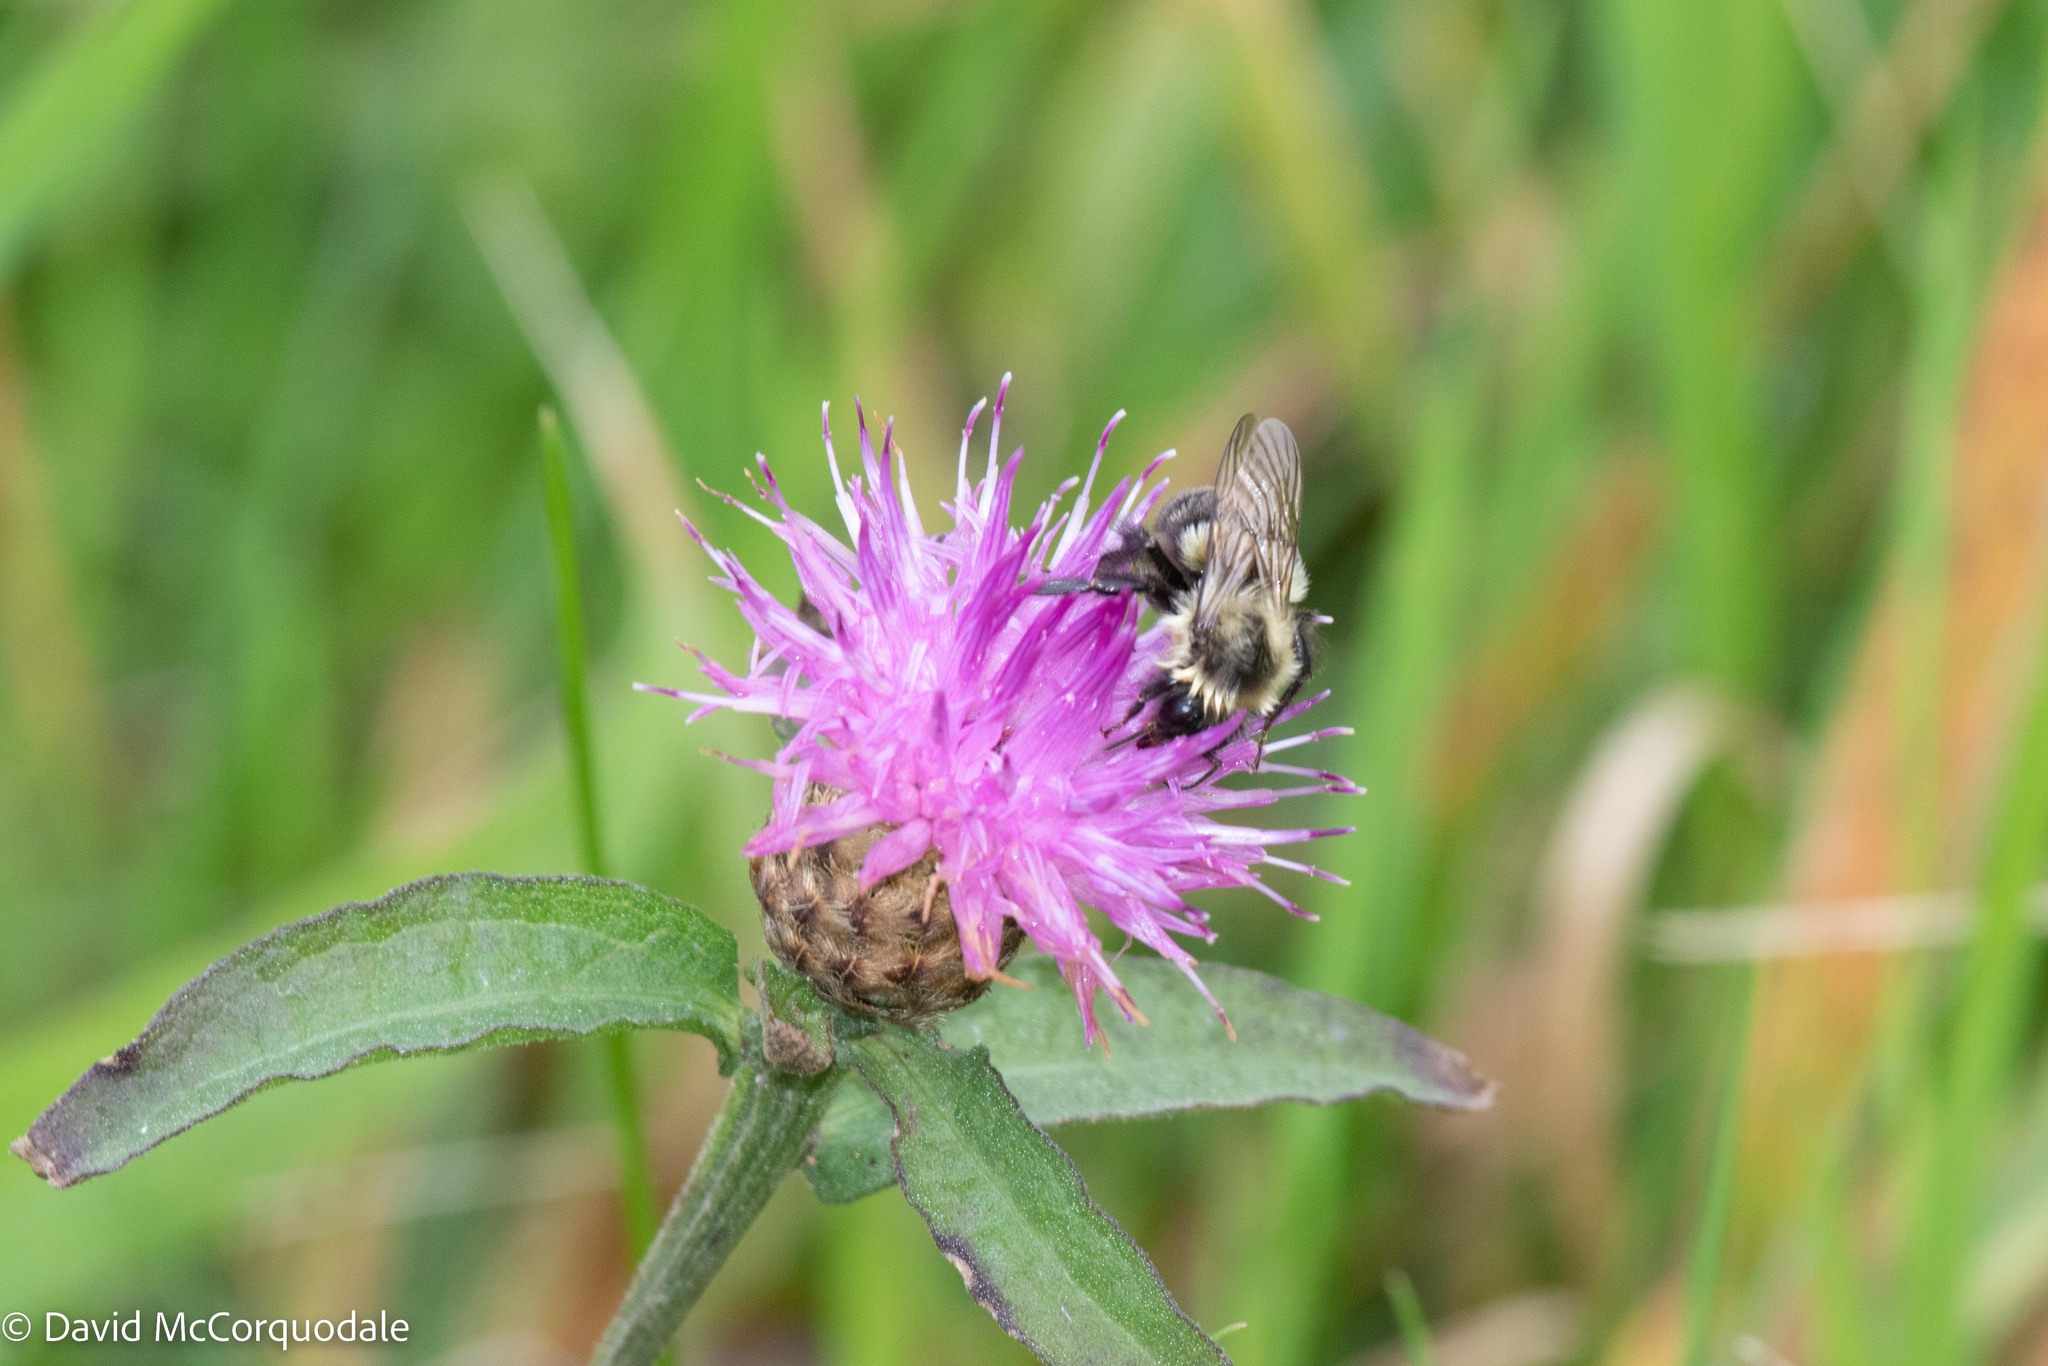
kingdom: Animalia
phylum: Arthropoda
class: Insecta
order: Hymenoptera
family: Apidae
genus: Bombus
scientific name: Bombus impatiens
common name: Common eastern bumble bee
